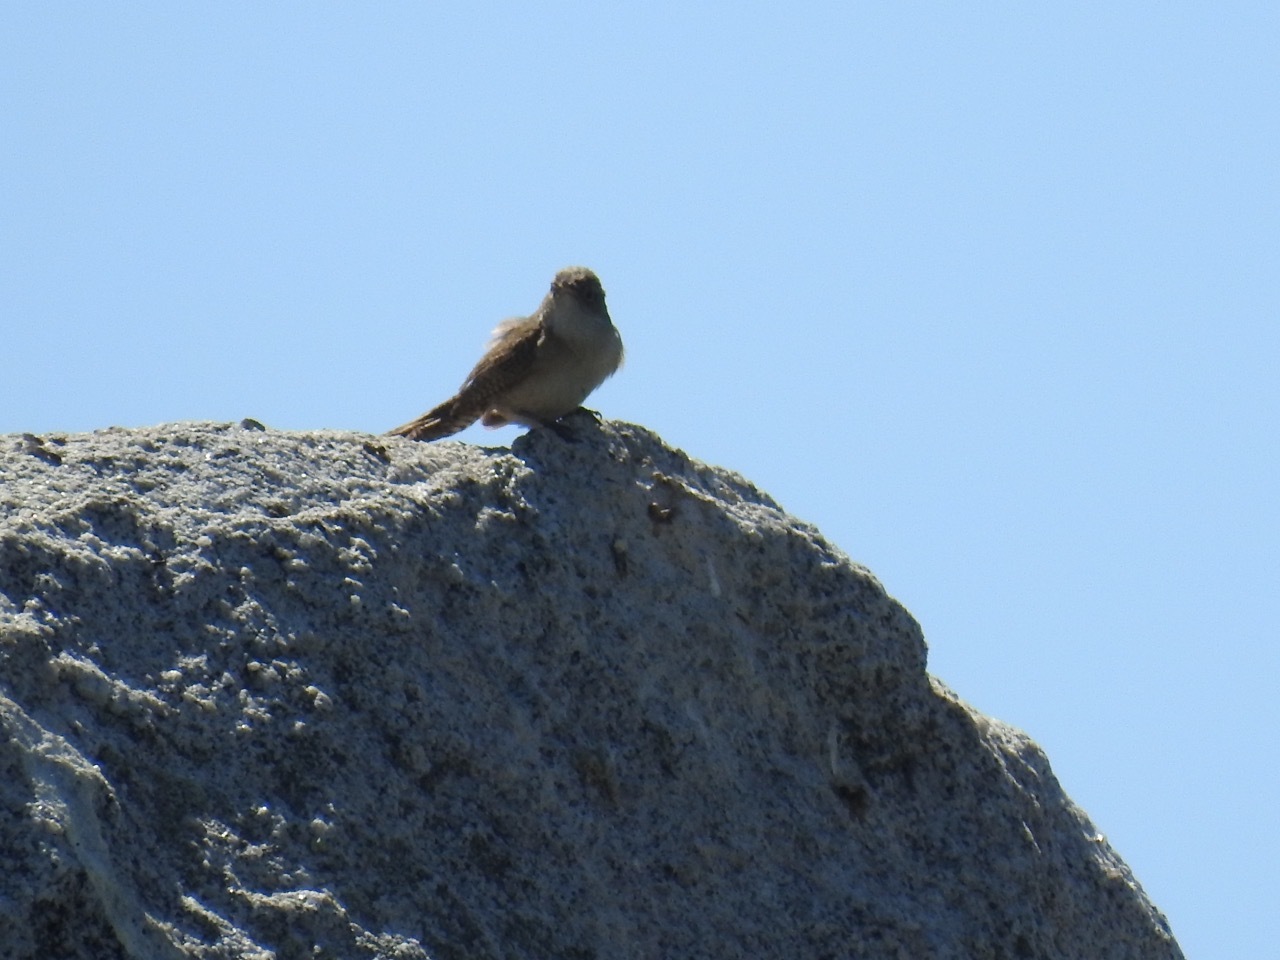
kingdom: Animalia
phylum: Chordata
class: Aves
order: Passeriformes
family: Troglodytidae
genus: Salpinctes
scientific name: Salpinctes obsoletus
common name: Rock wren
